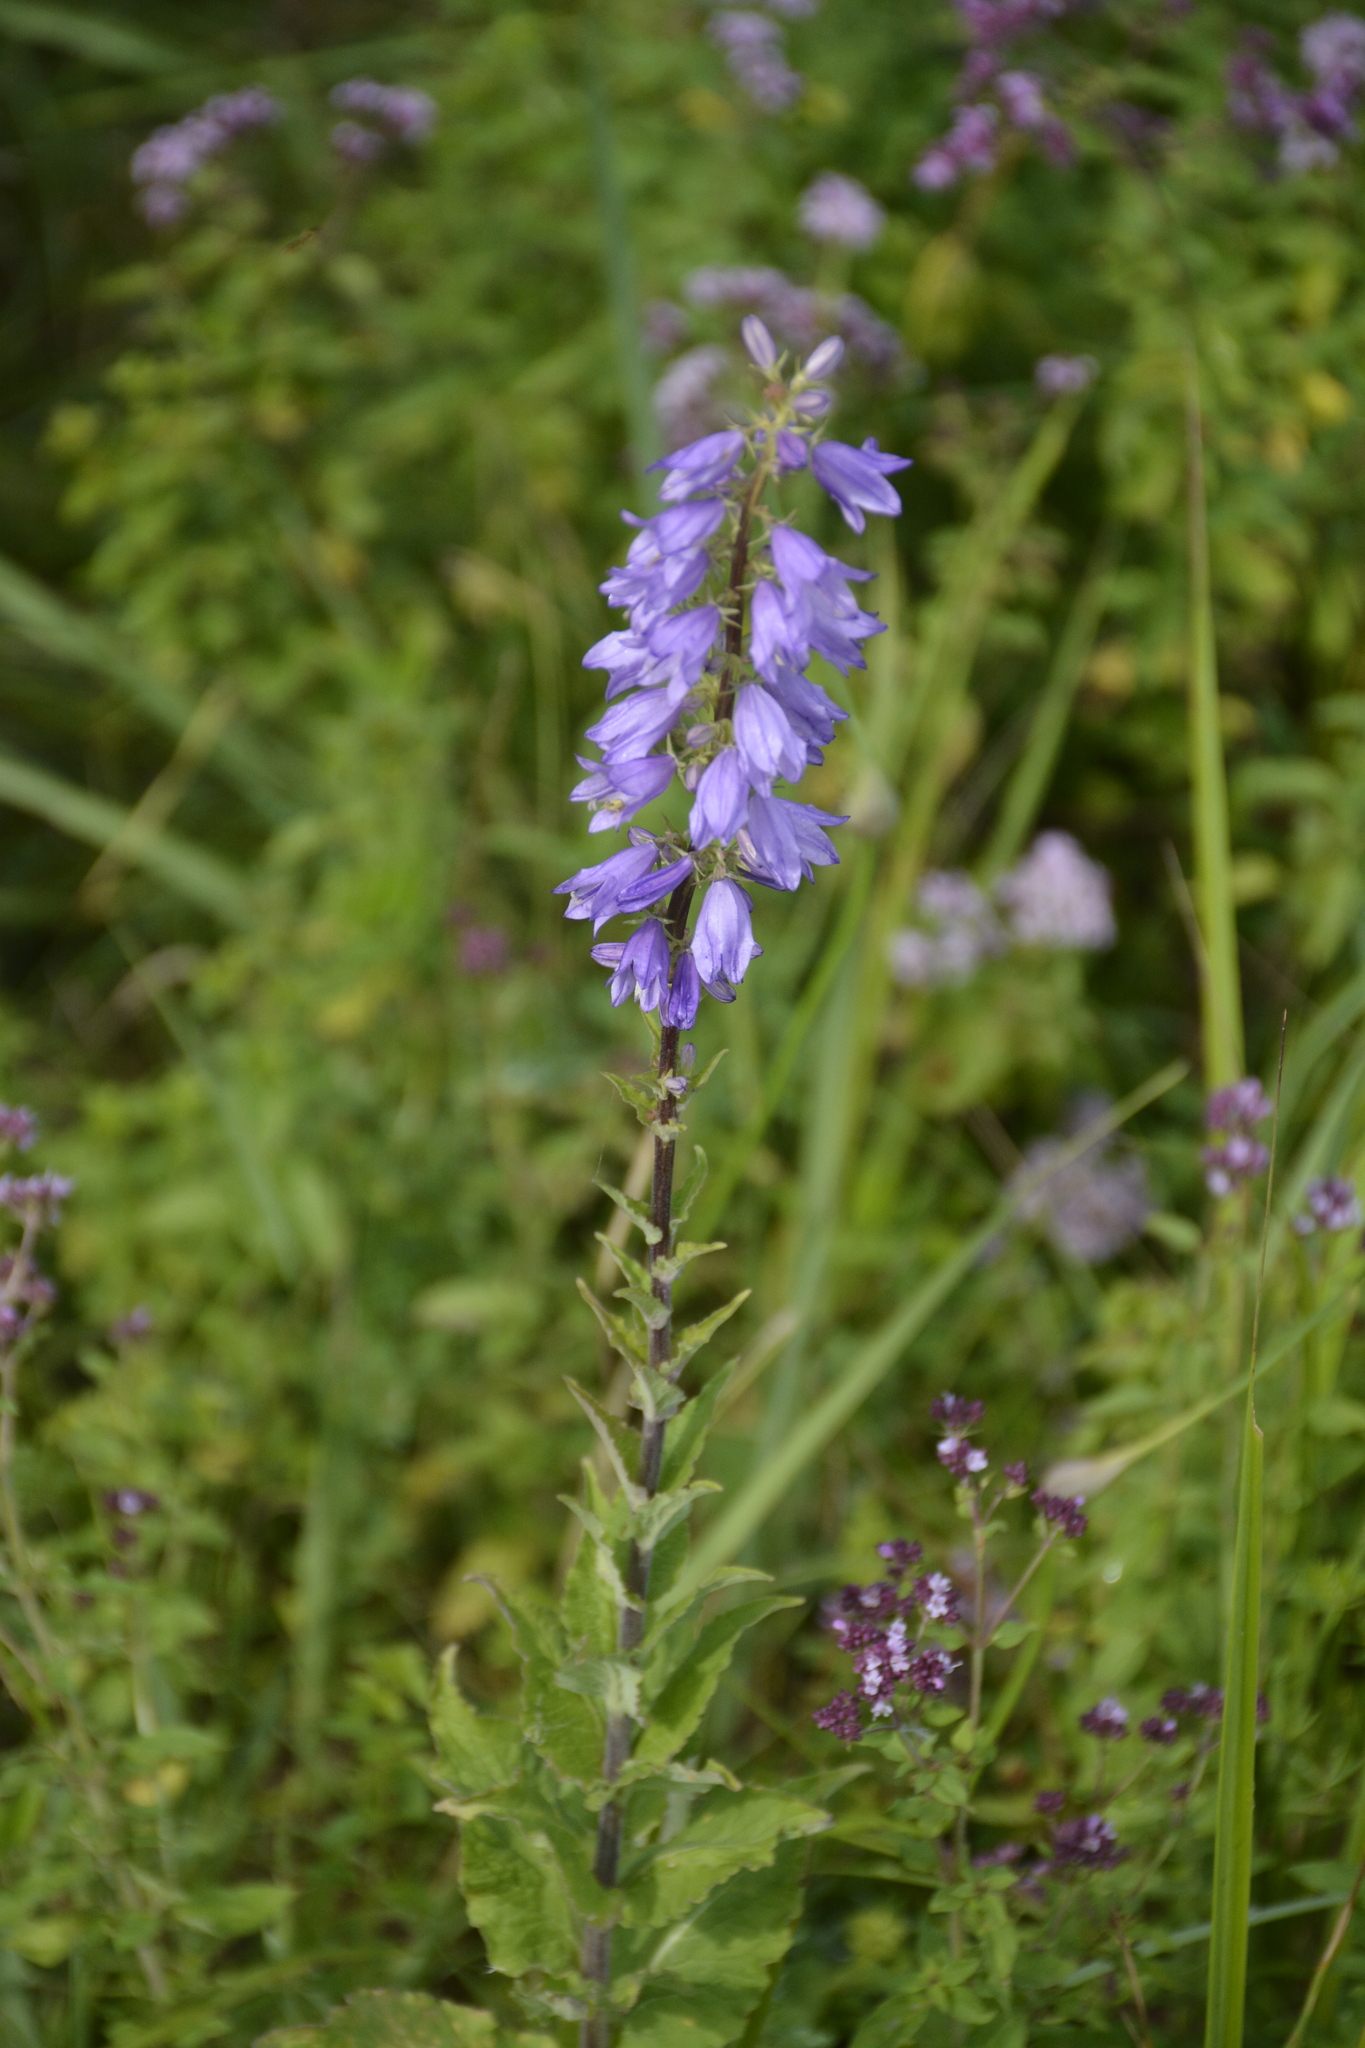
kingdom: Plantae
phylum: Tracheophyta
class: Magnoliopsida
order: Asterales
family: Campanulaceae
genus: Campanula
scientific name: Campanula bononiensis
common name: Pale bellflower
